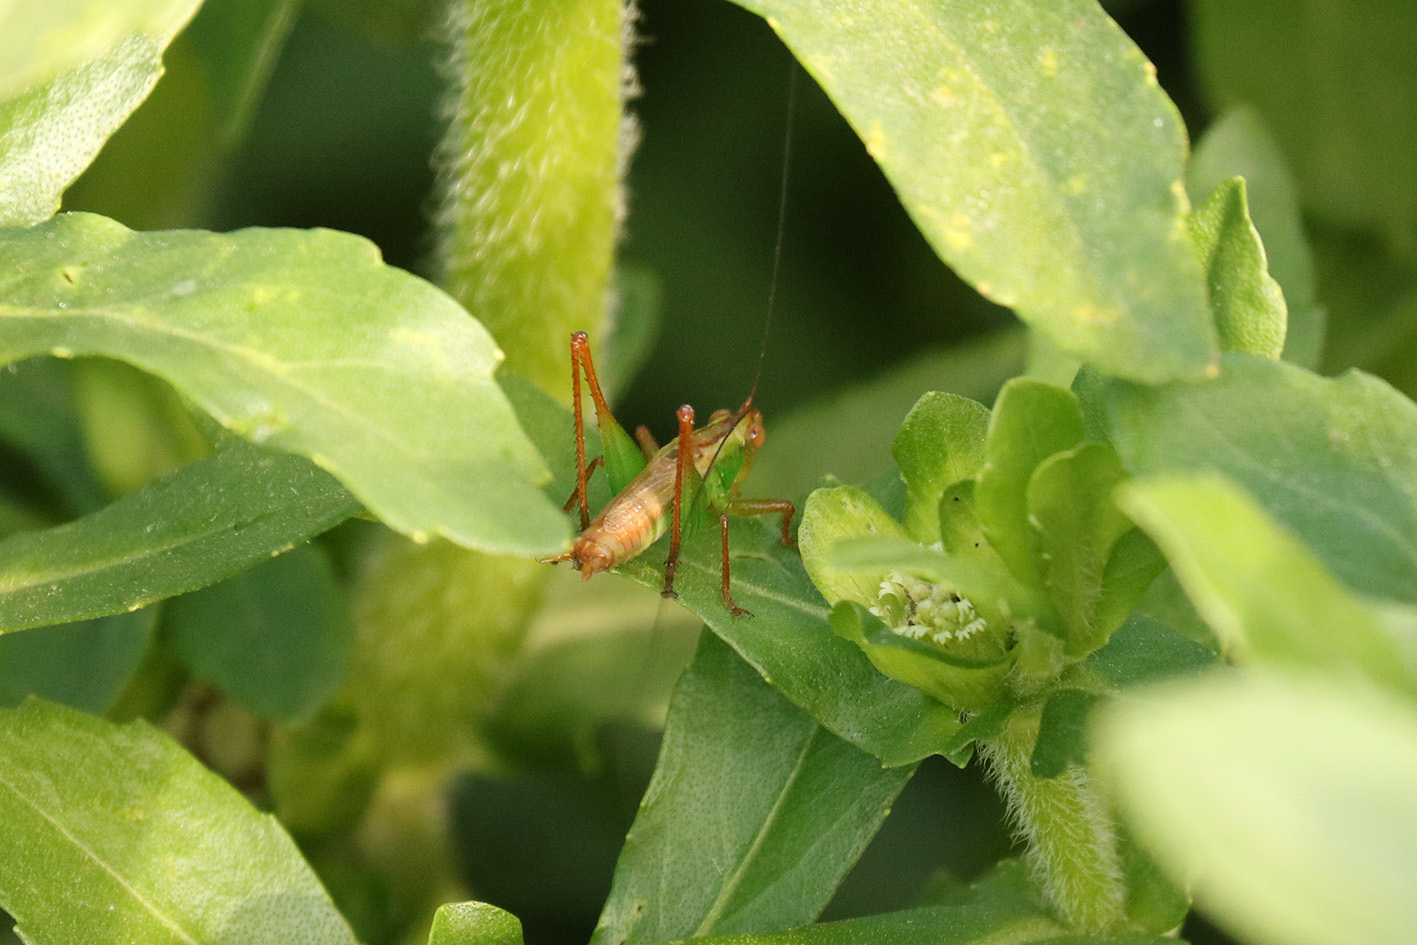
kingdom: Animalia
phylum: Arthropoda
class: Insecta
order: Orthoptera
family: Tettigoniidae
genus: Conocephalus
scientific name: Conocephalus cinnamonifrons
